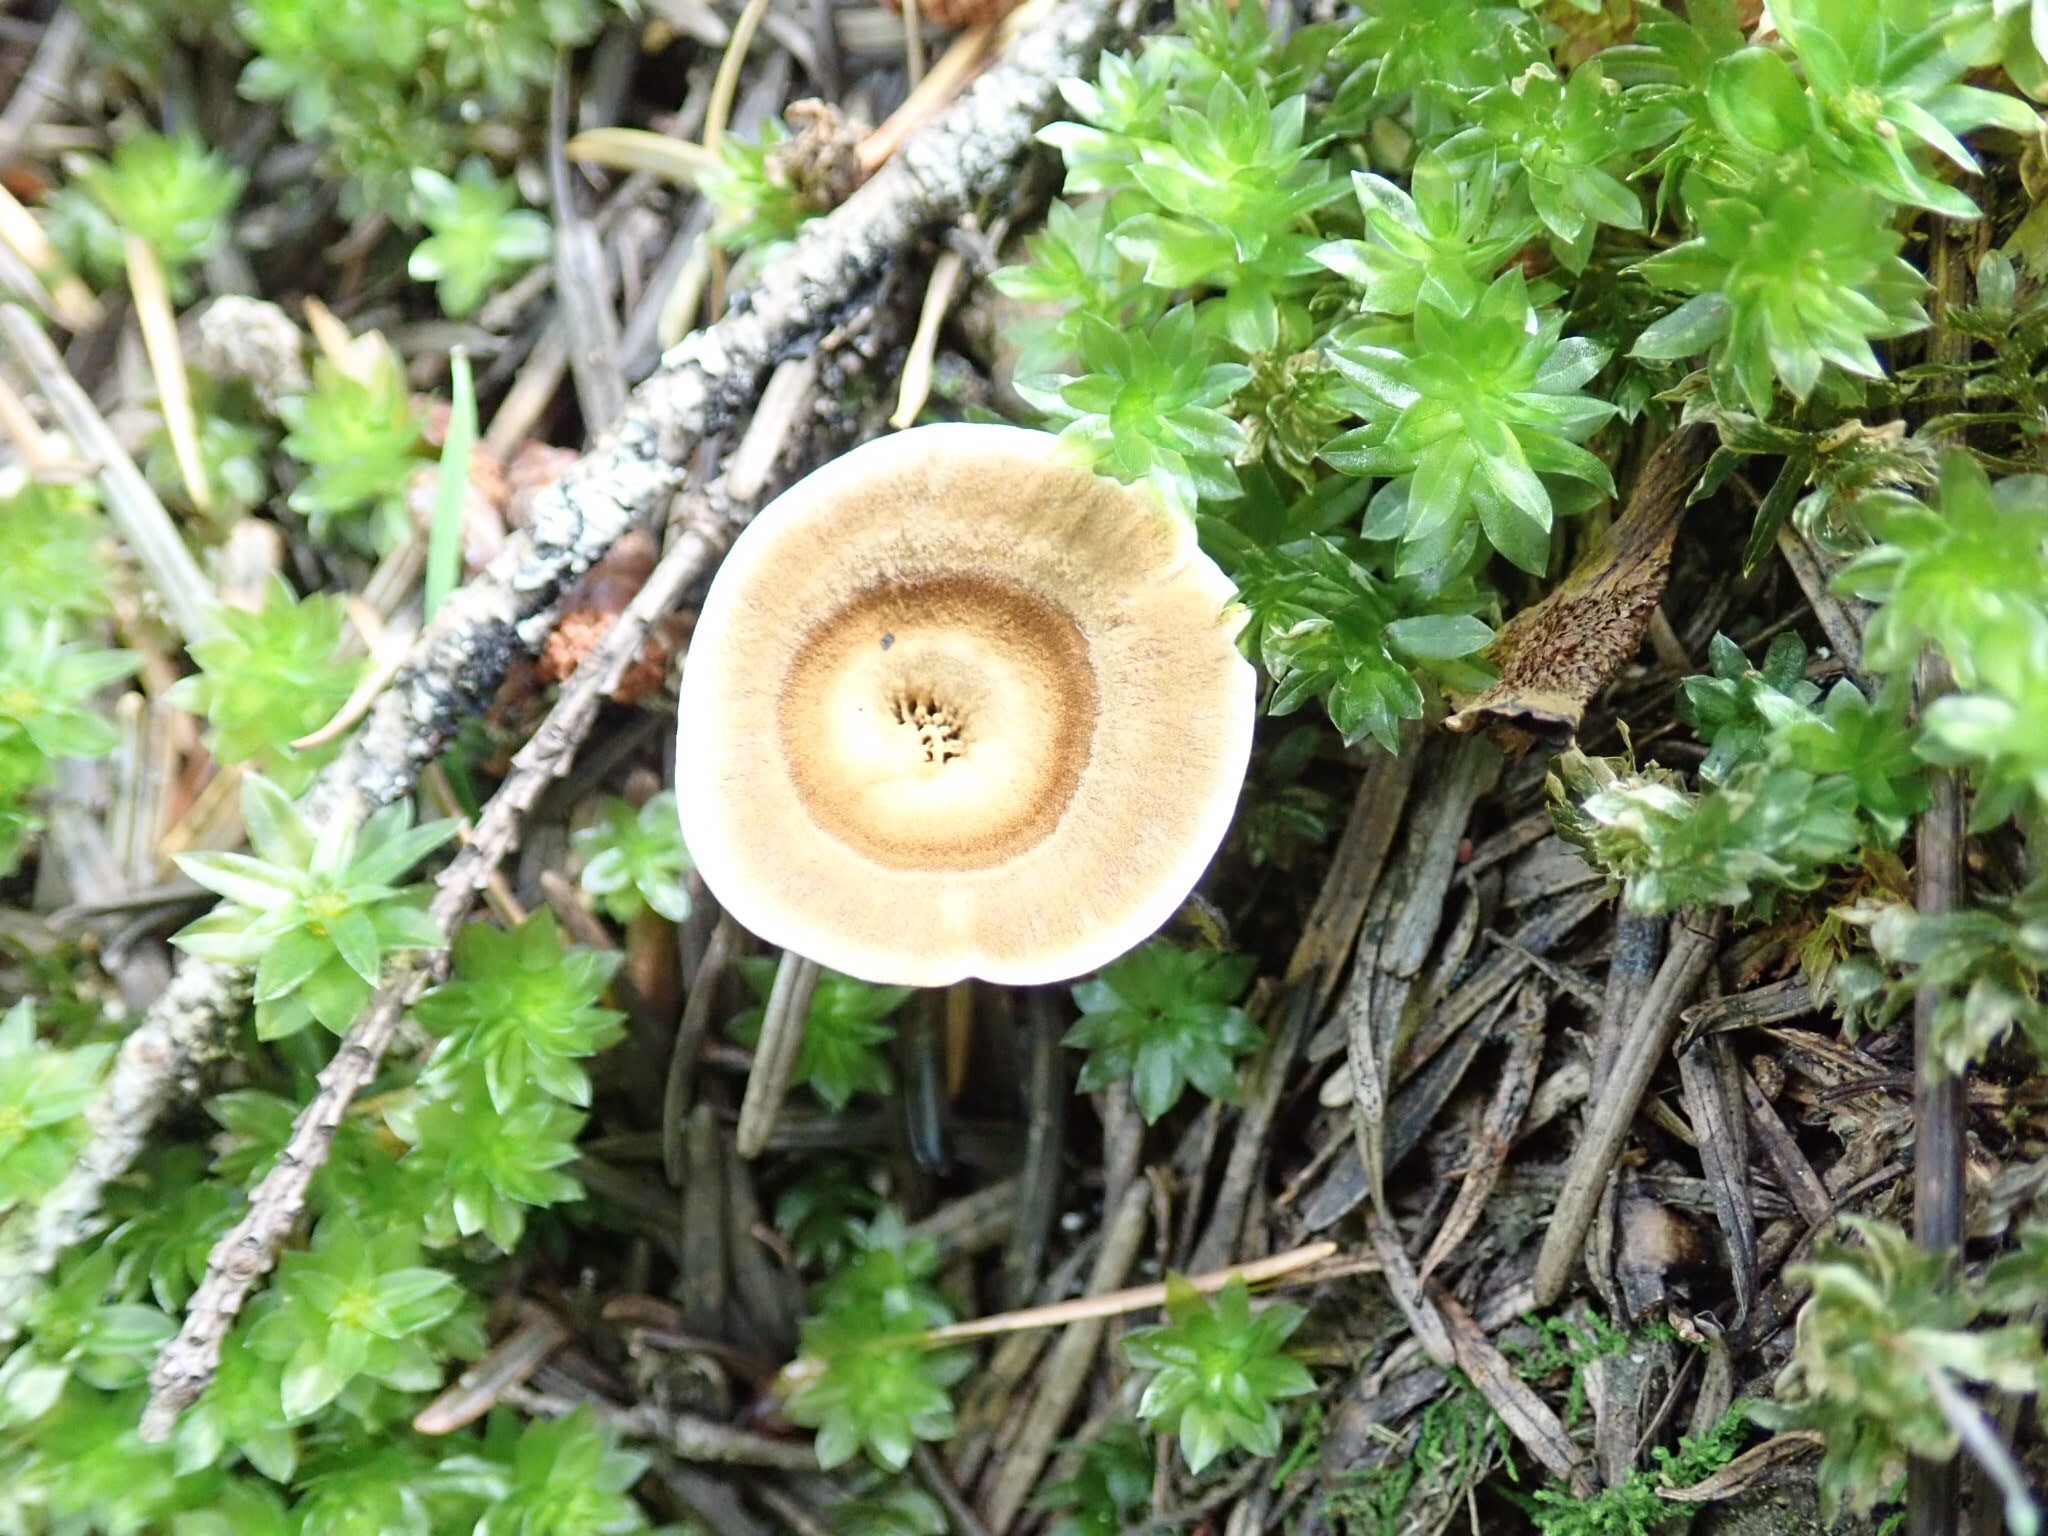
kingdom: Plantae
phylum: Bryophyta
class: Bryopsida
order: Bryales
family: Mniaceae
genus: Plagiomnium
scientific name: Plagiomnium insigne
